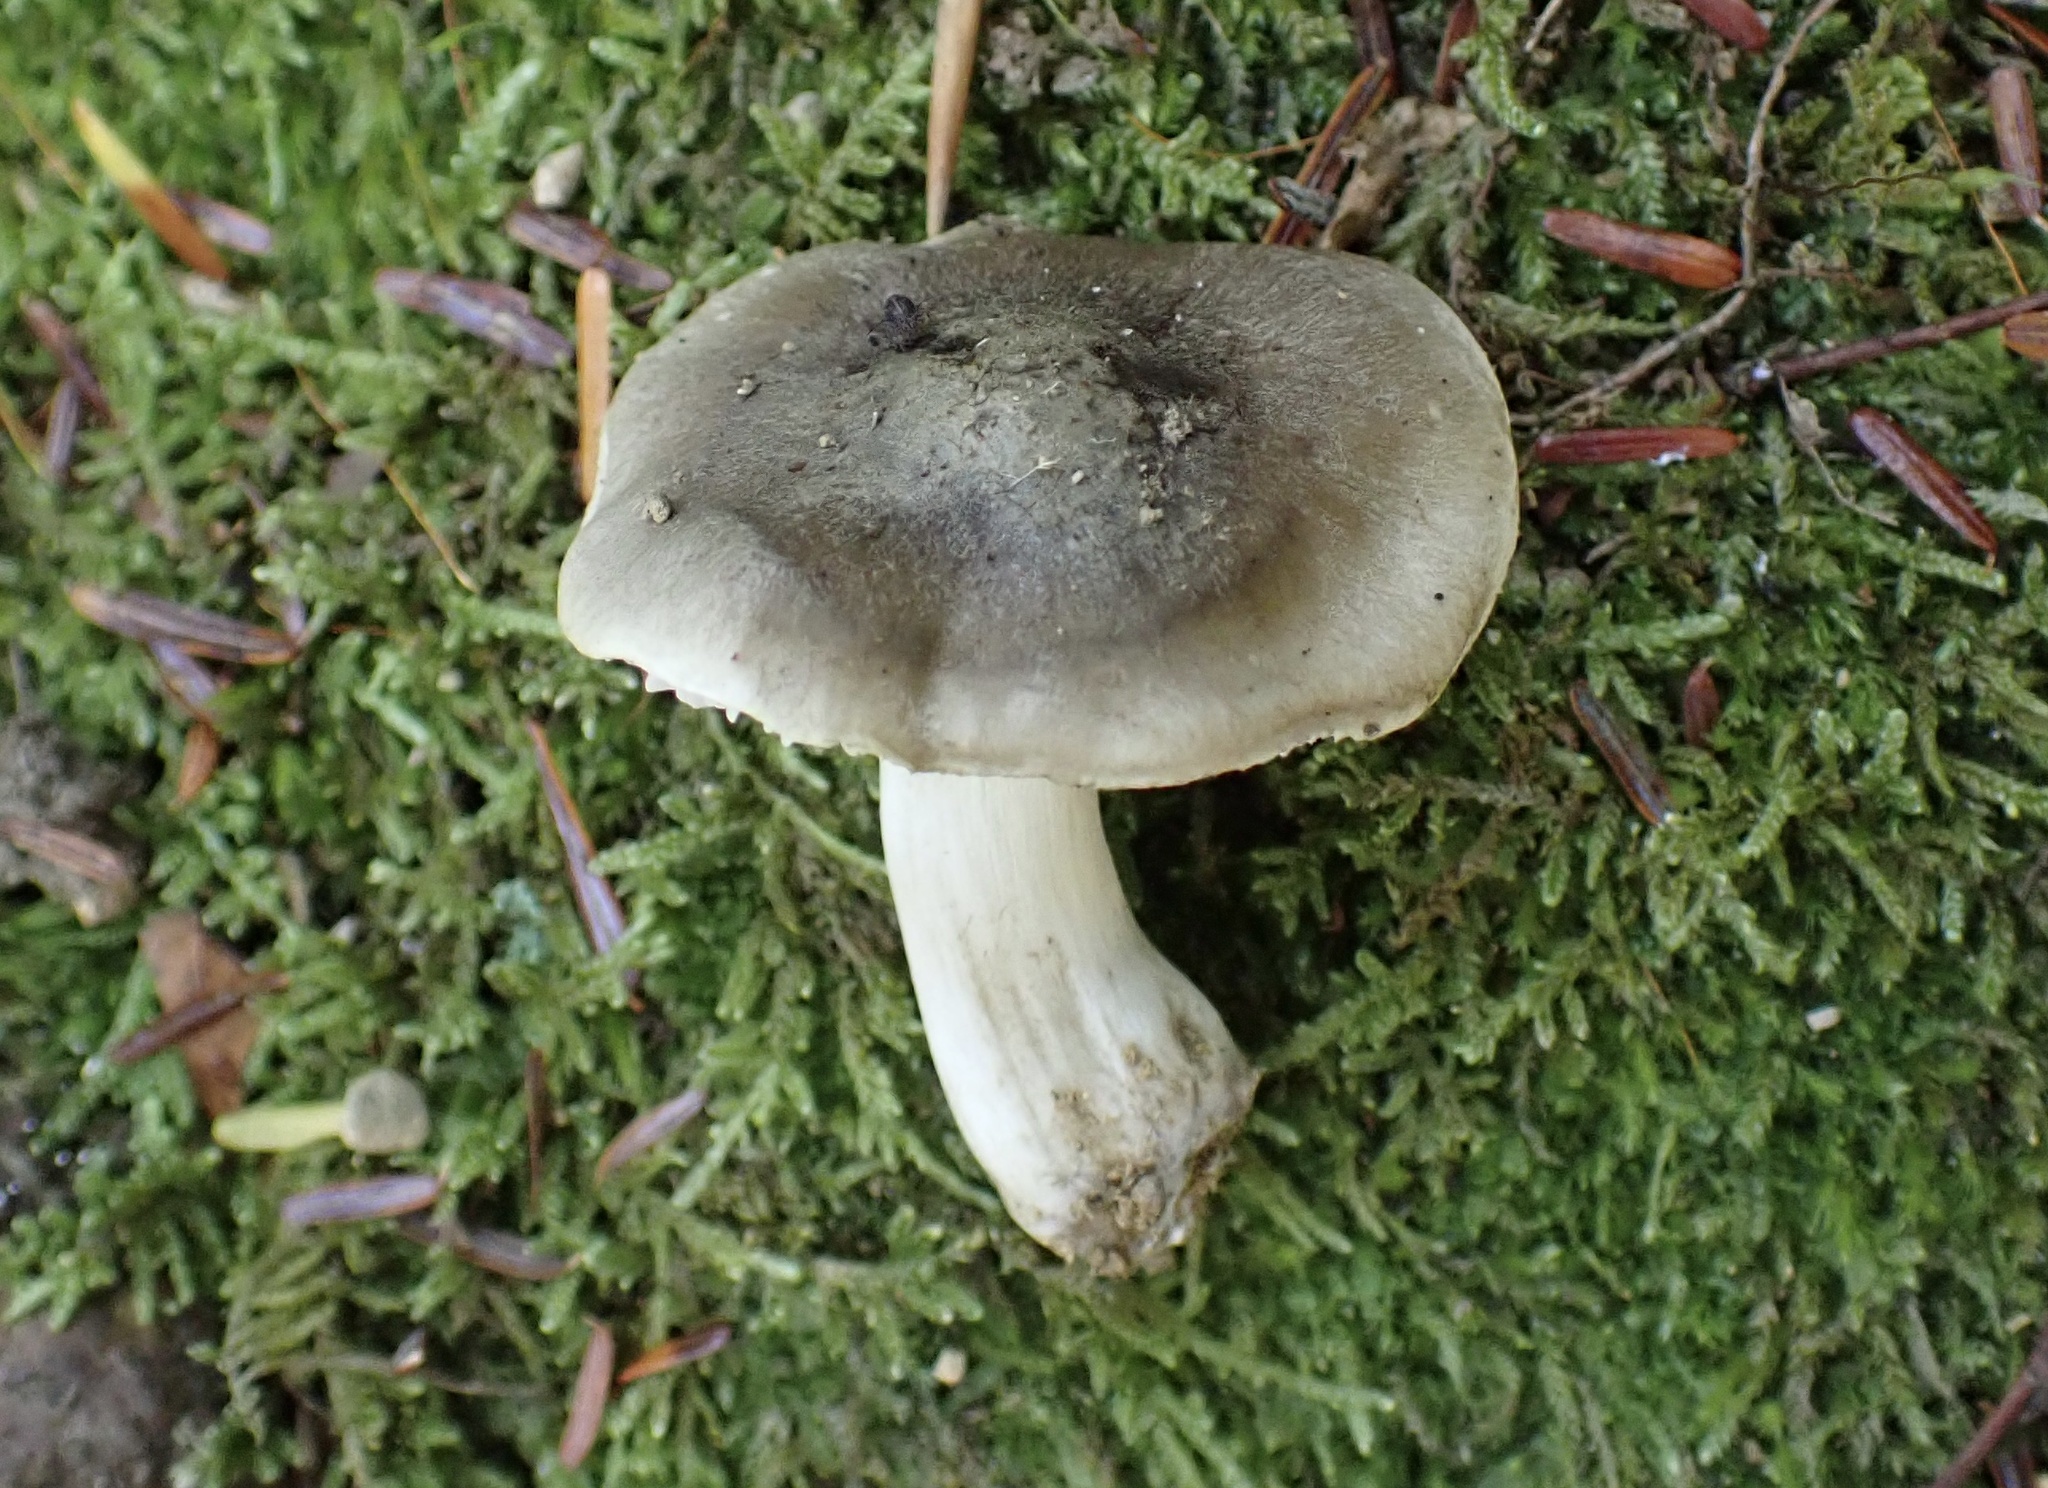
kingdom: Fungi
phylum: Basidiomycota
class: Agaricomycetes
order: Agaricales
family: Tricholomataceae
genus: Tricholoma
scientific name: Tricholoma terreum
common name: Grey knight
